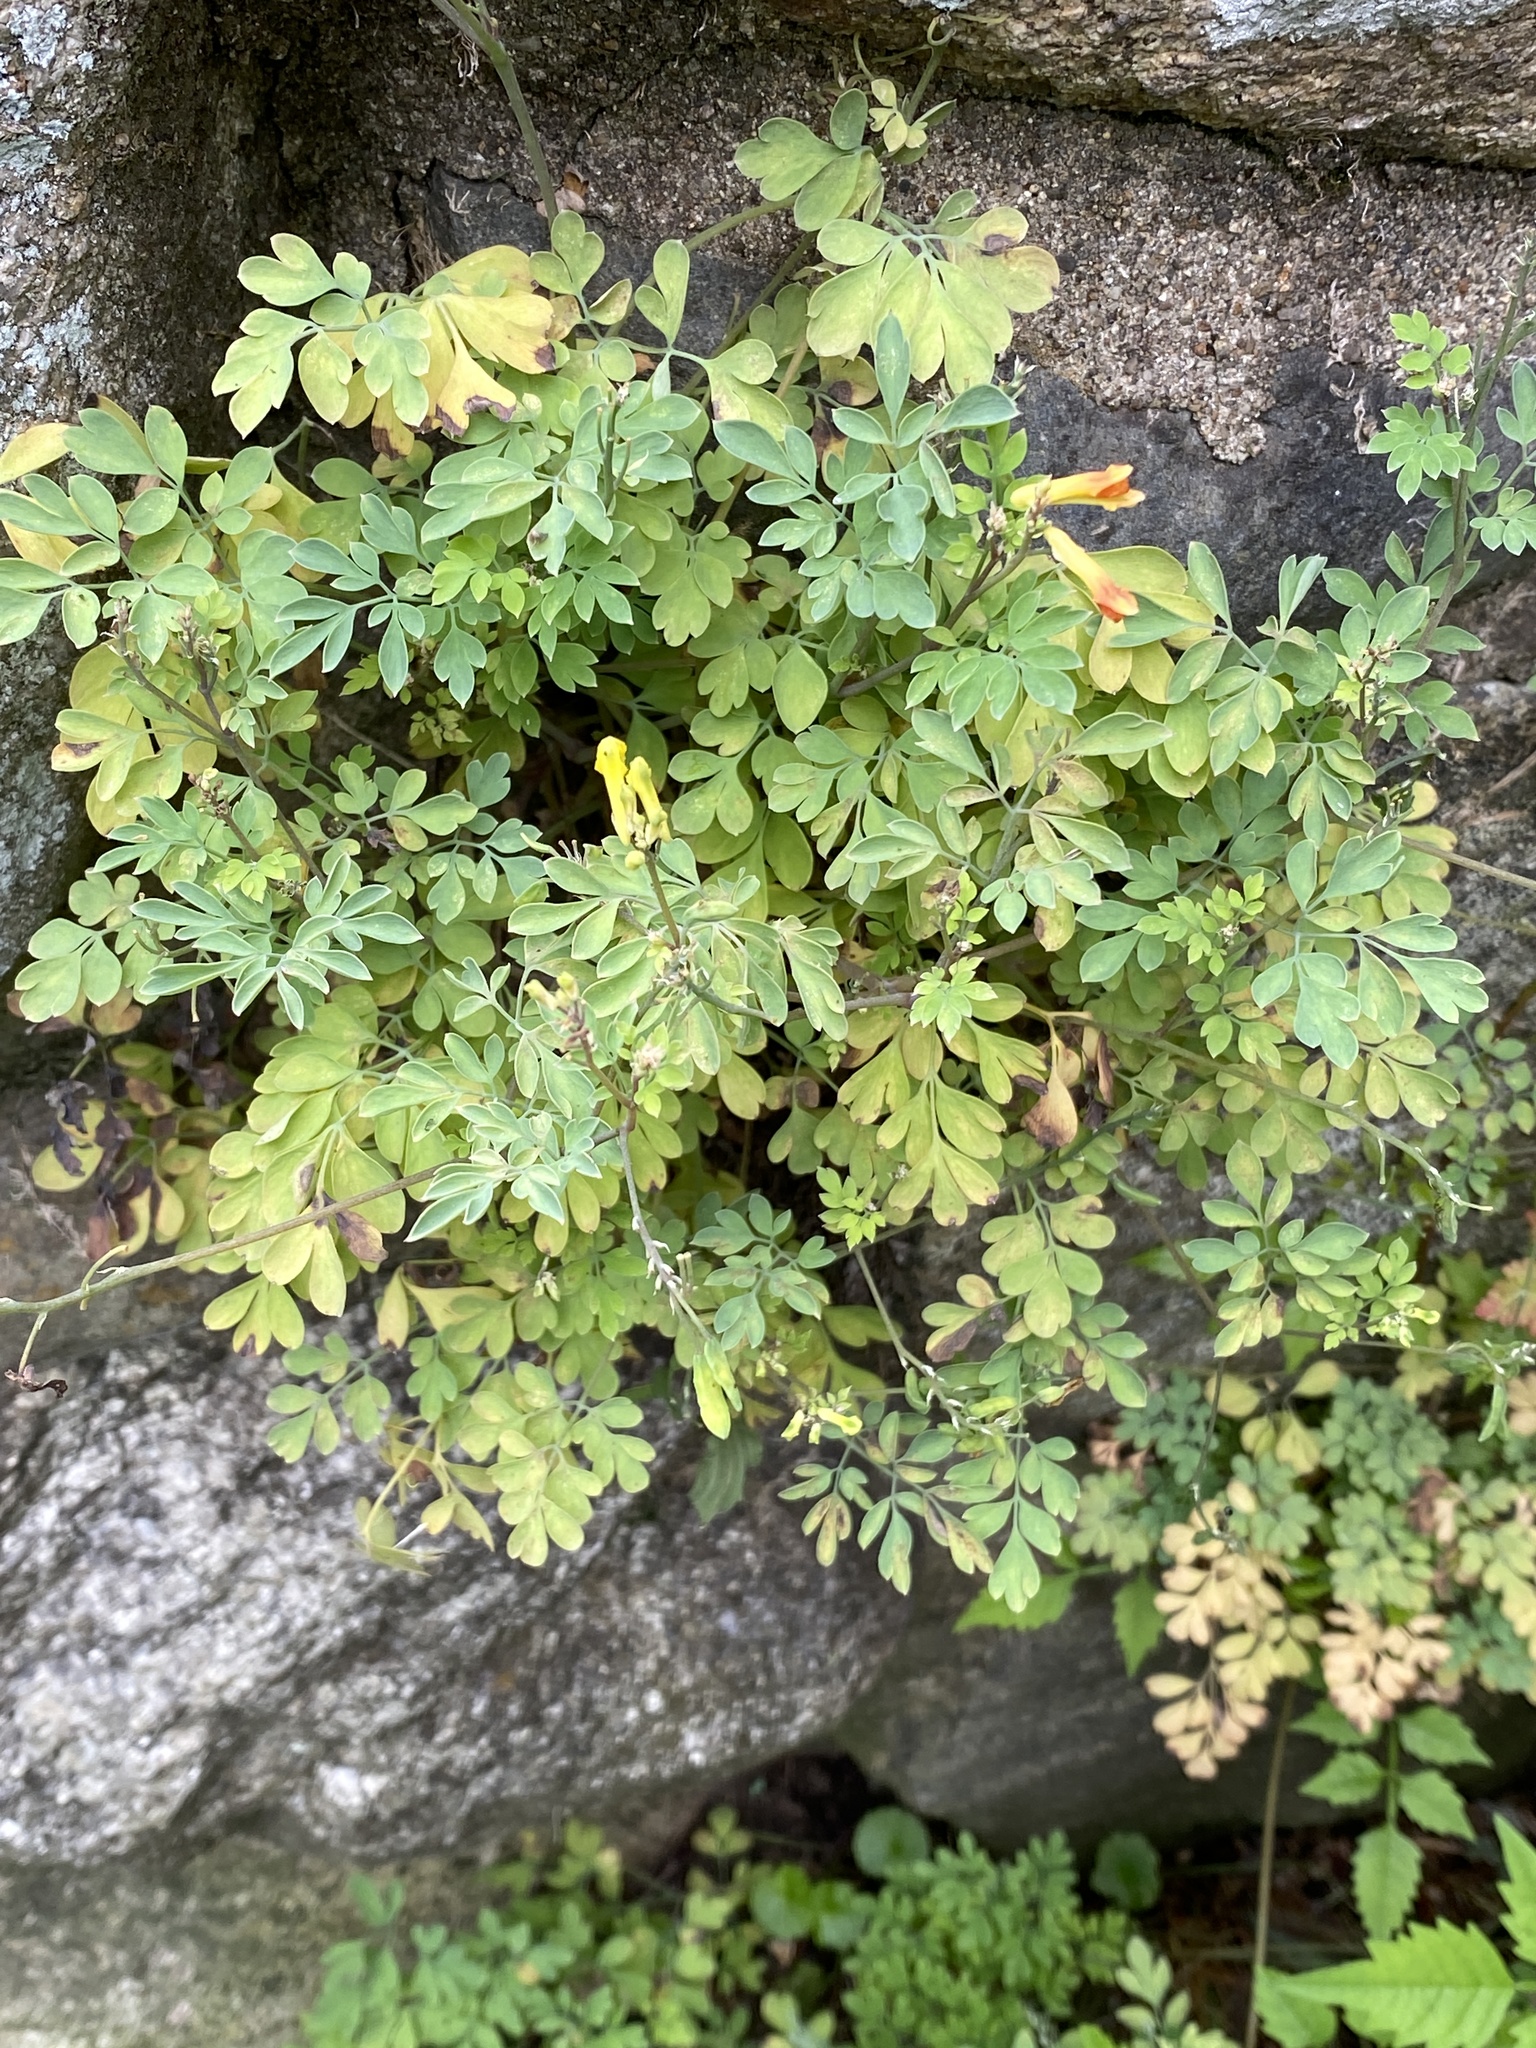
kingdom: Plantae
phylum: Tracheophyta
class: Magnoliopsida
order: Ranunculales
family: Papaveraceae
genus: Pseudofumaria
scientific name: Pseudofumaria lutea
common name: Yellow corydalis
